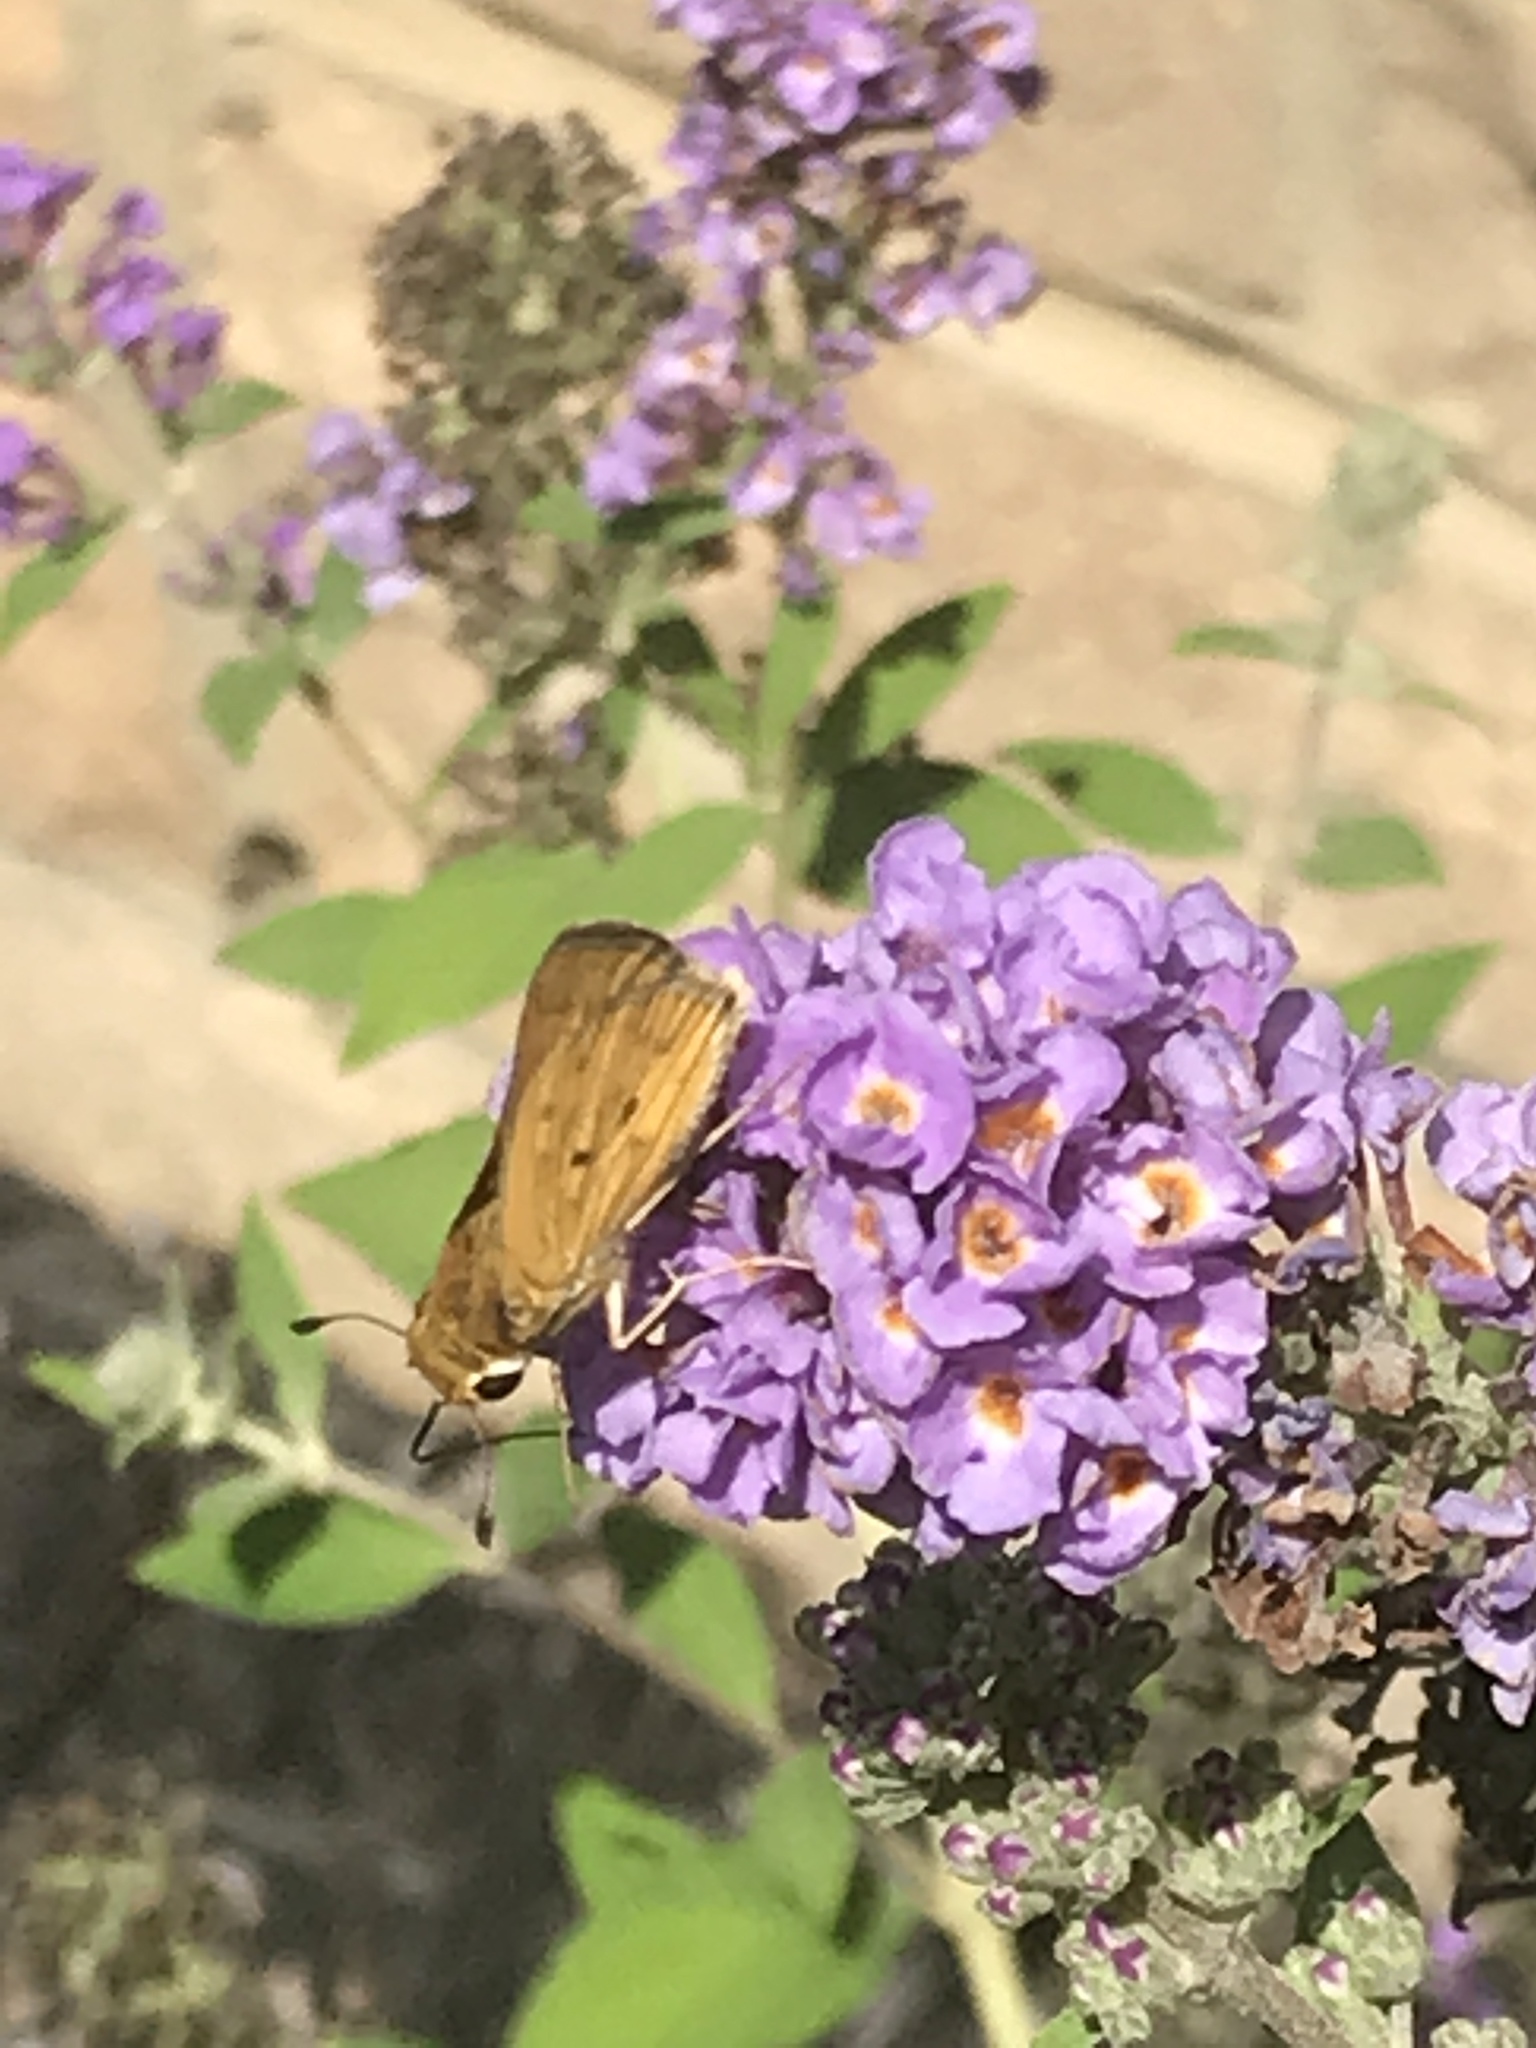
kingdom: Animalia
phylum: Arthropoda
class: Insecta
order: Lepidoptera
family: Hesperiidae
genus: Hylephila
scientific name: Hylephila phyleus
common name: Fiery skipper
